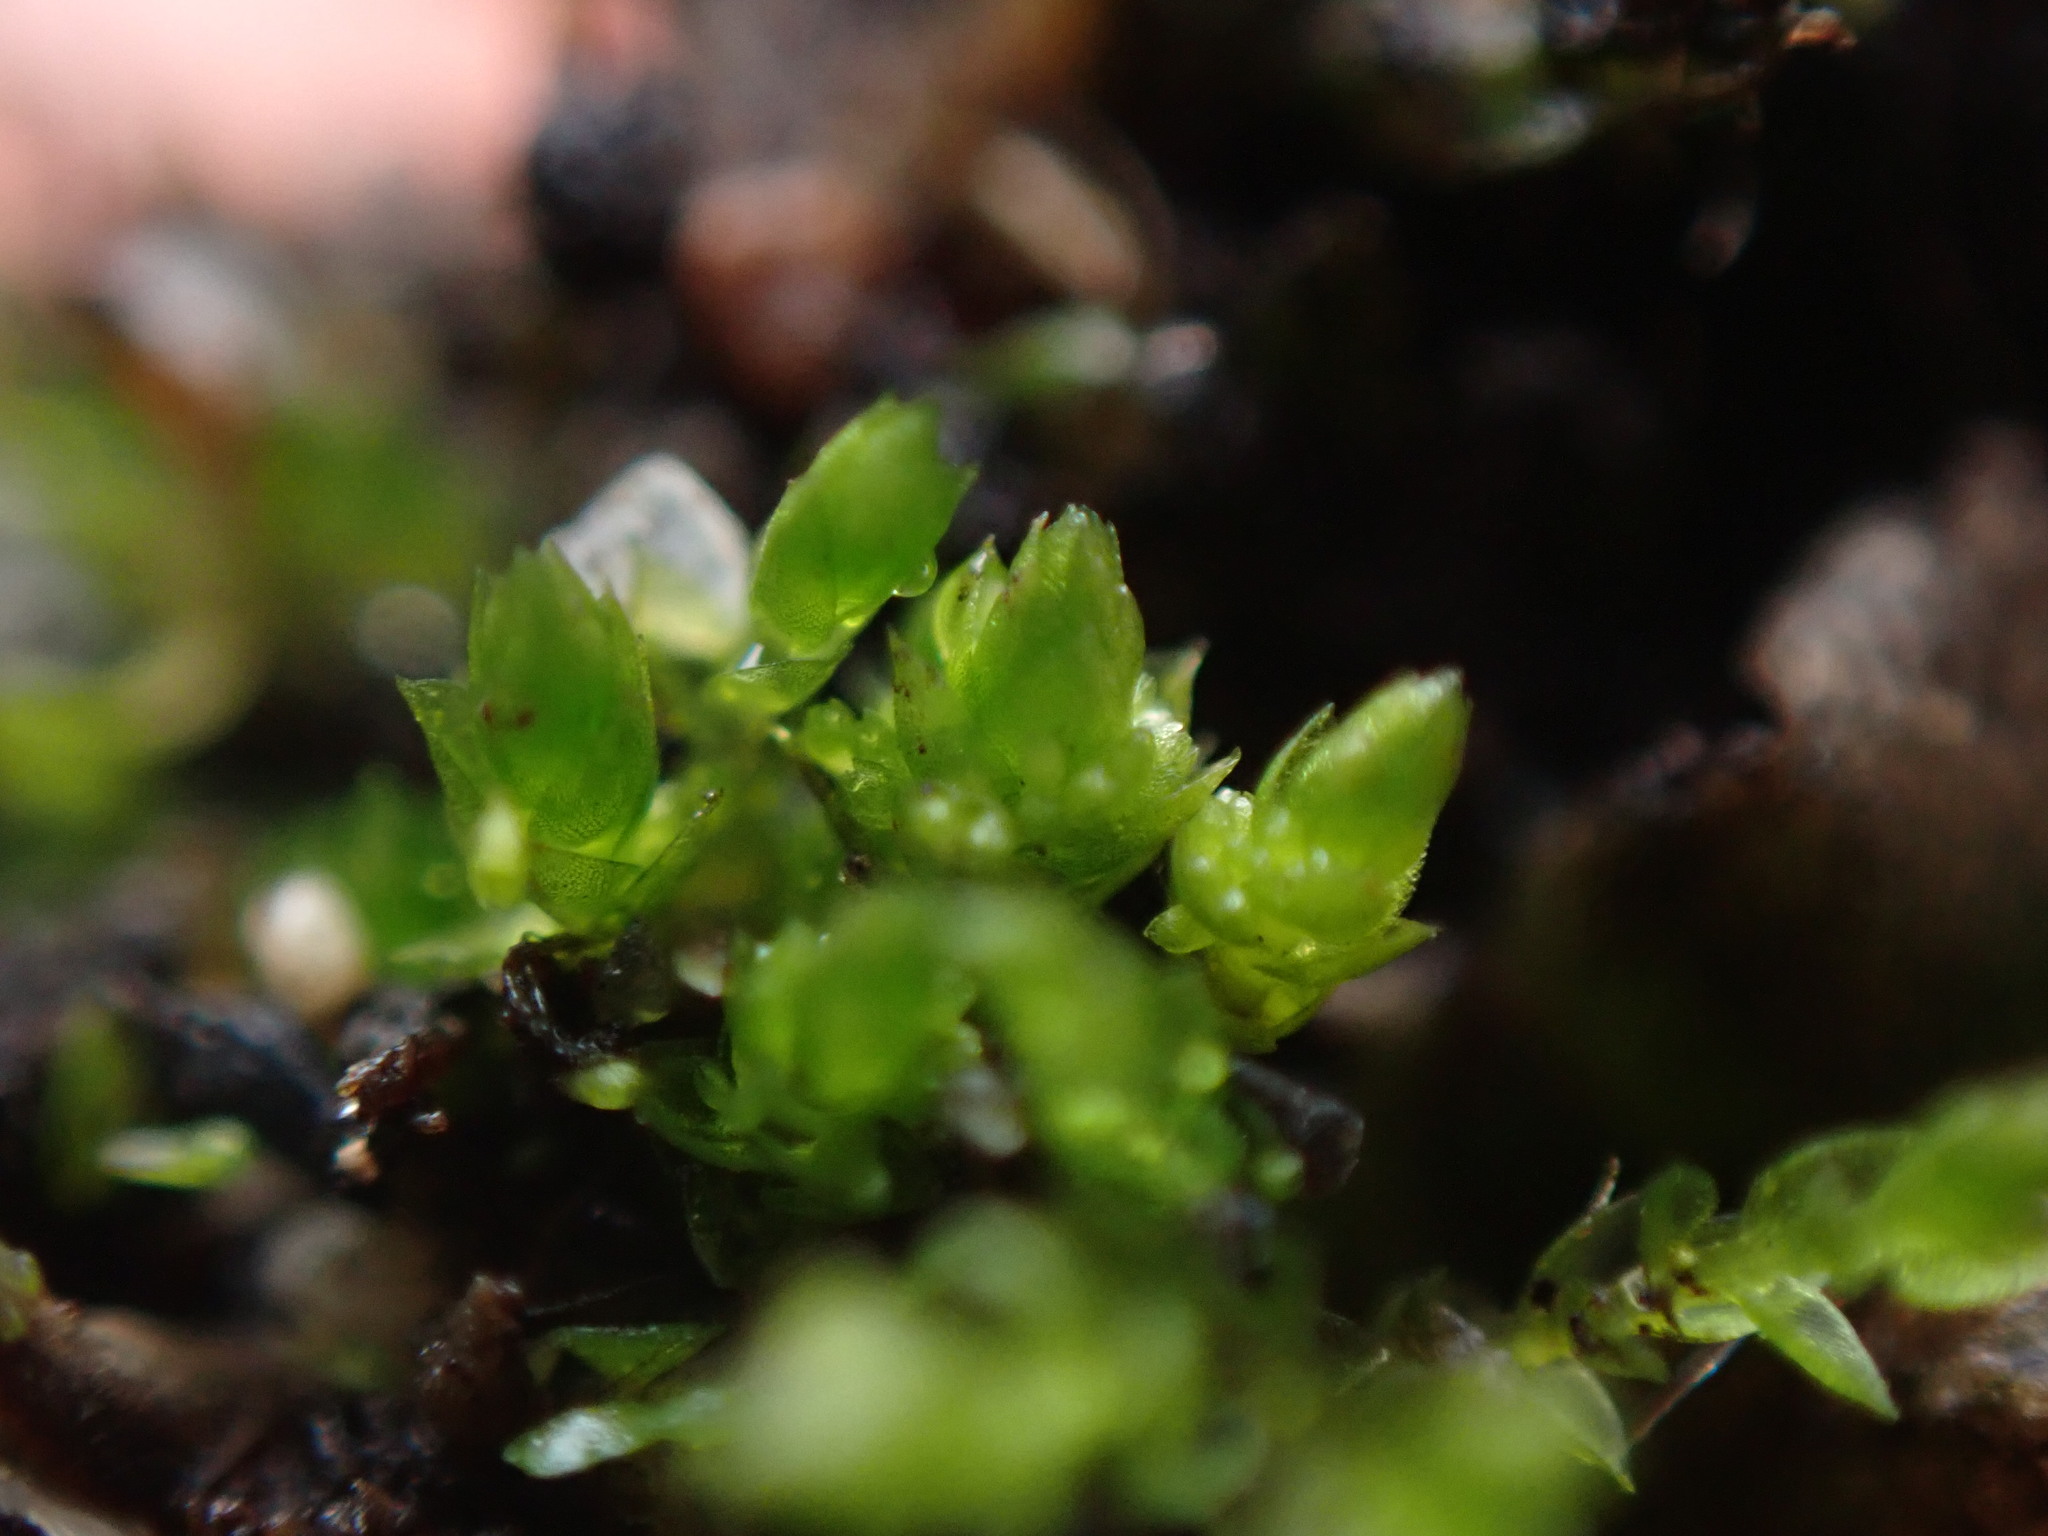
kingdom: Plantae
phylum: Bryophyta
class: Bryopsida
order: Bryales
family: Bryaceae
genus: Gemmabryum
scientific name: Gemmabryum
